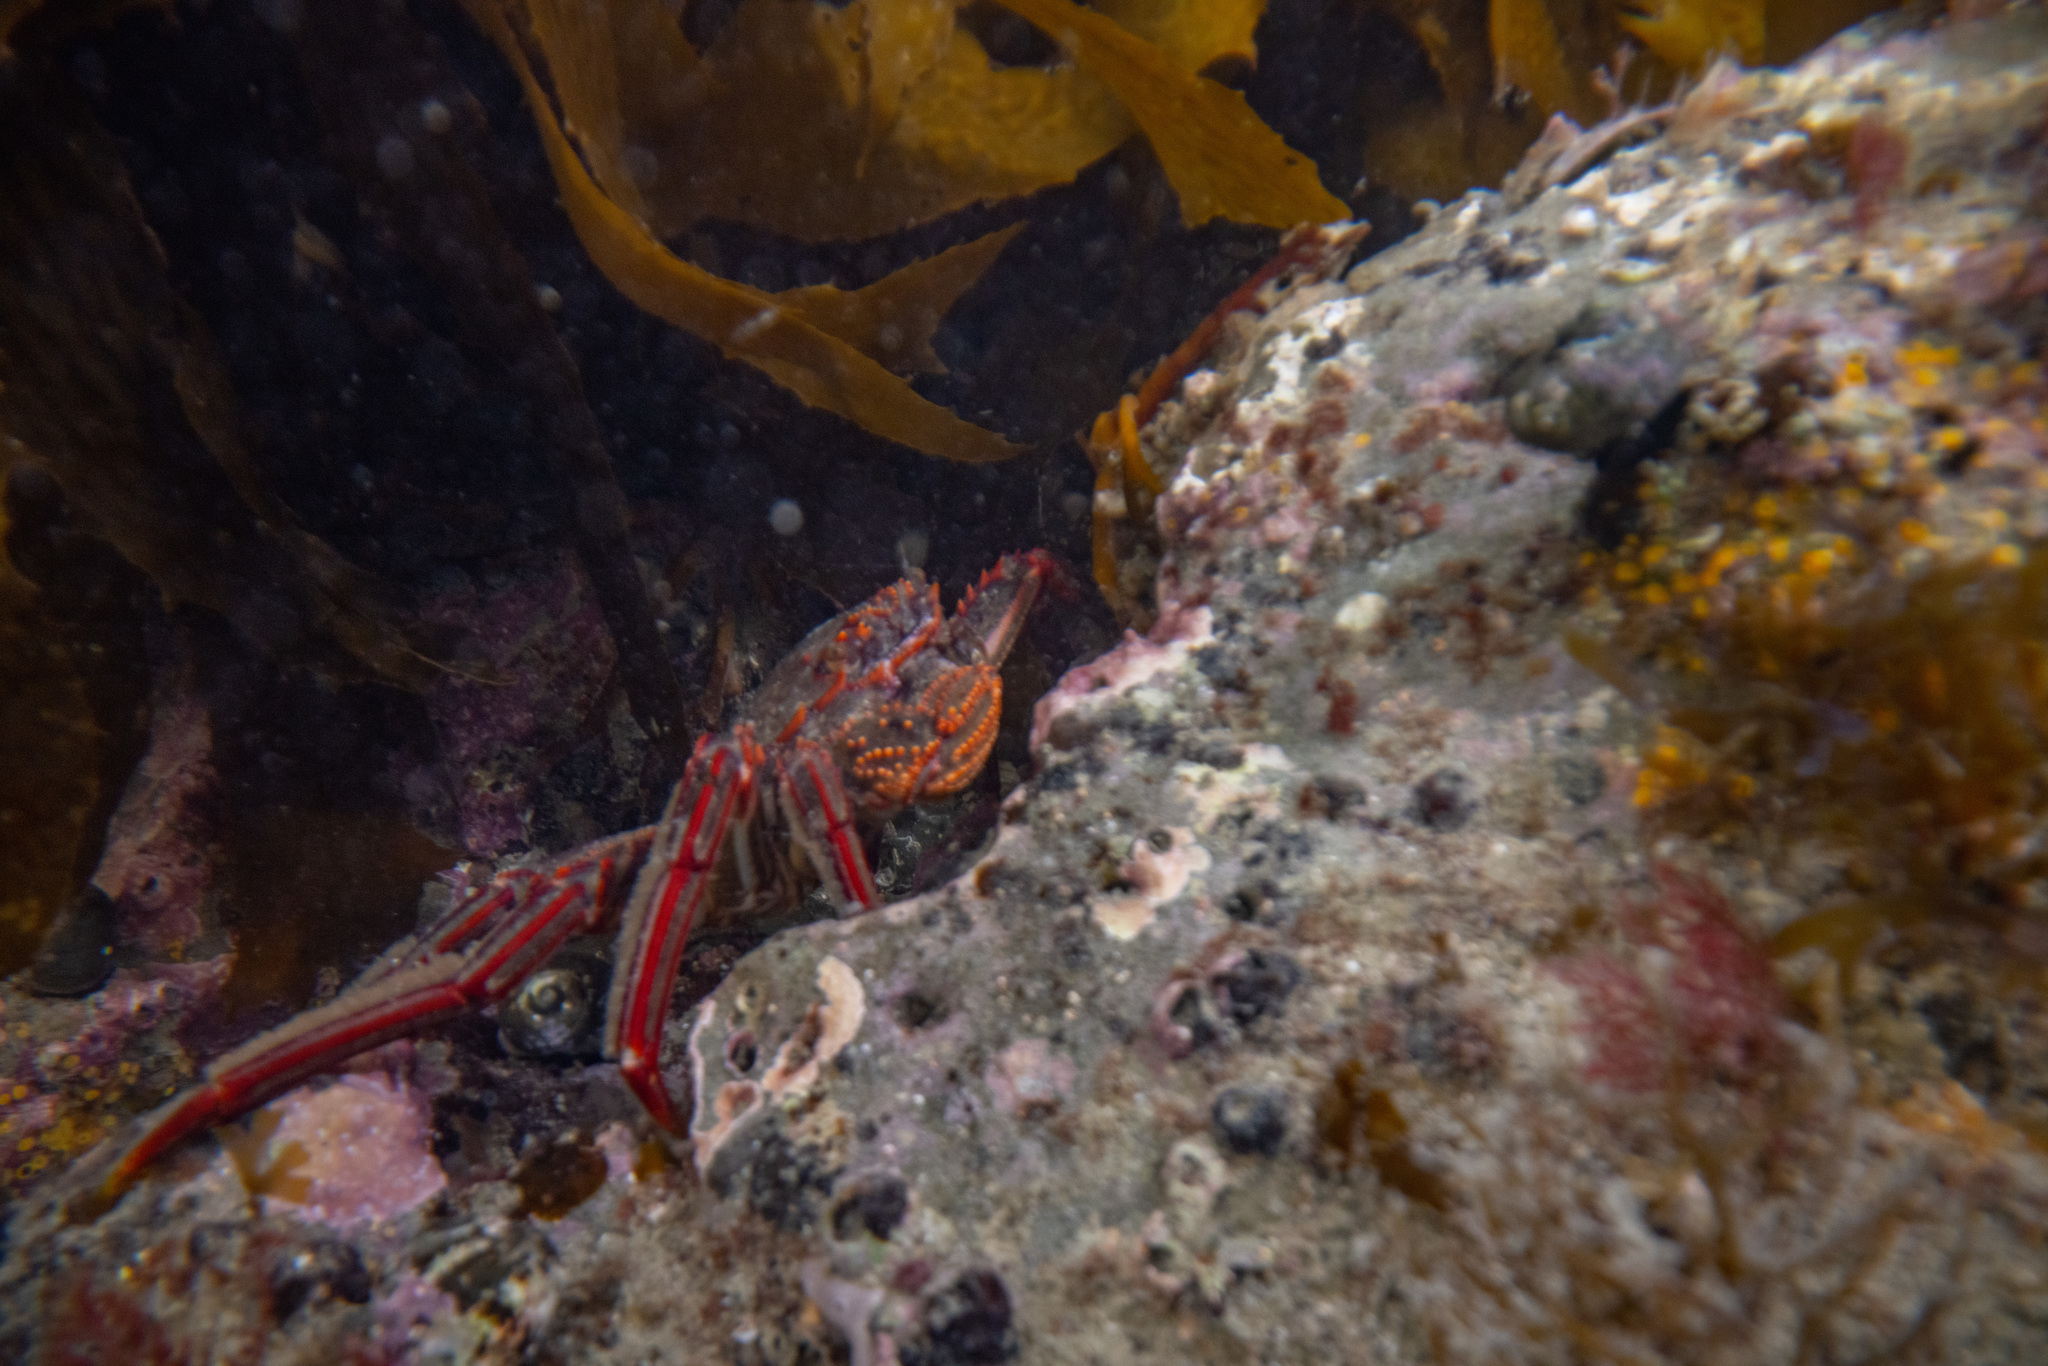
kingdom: Animalia
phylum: Arthropoda
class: Malacostraca
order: Decapoda
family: Plagusiidae
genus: Guinusia
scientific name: Guinusia chabrus
